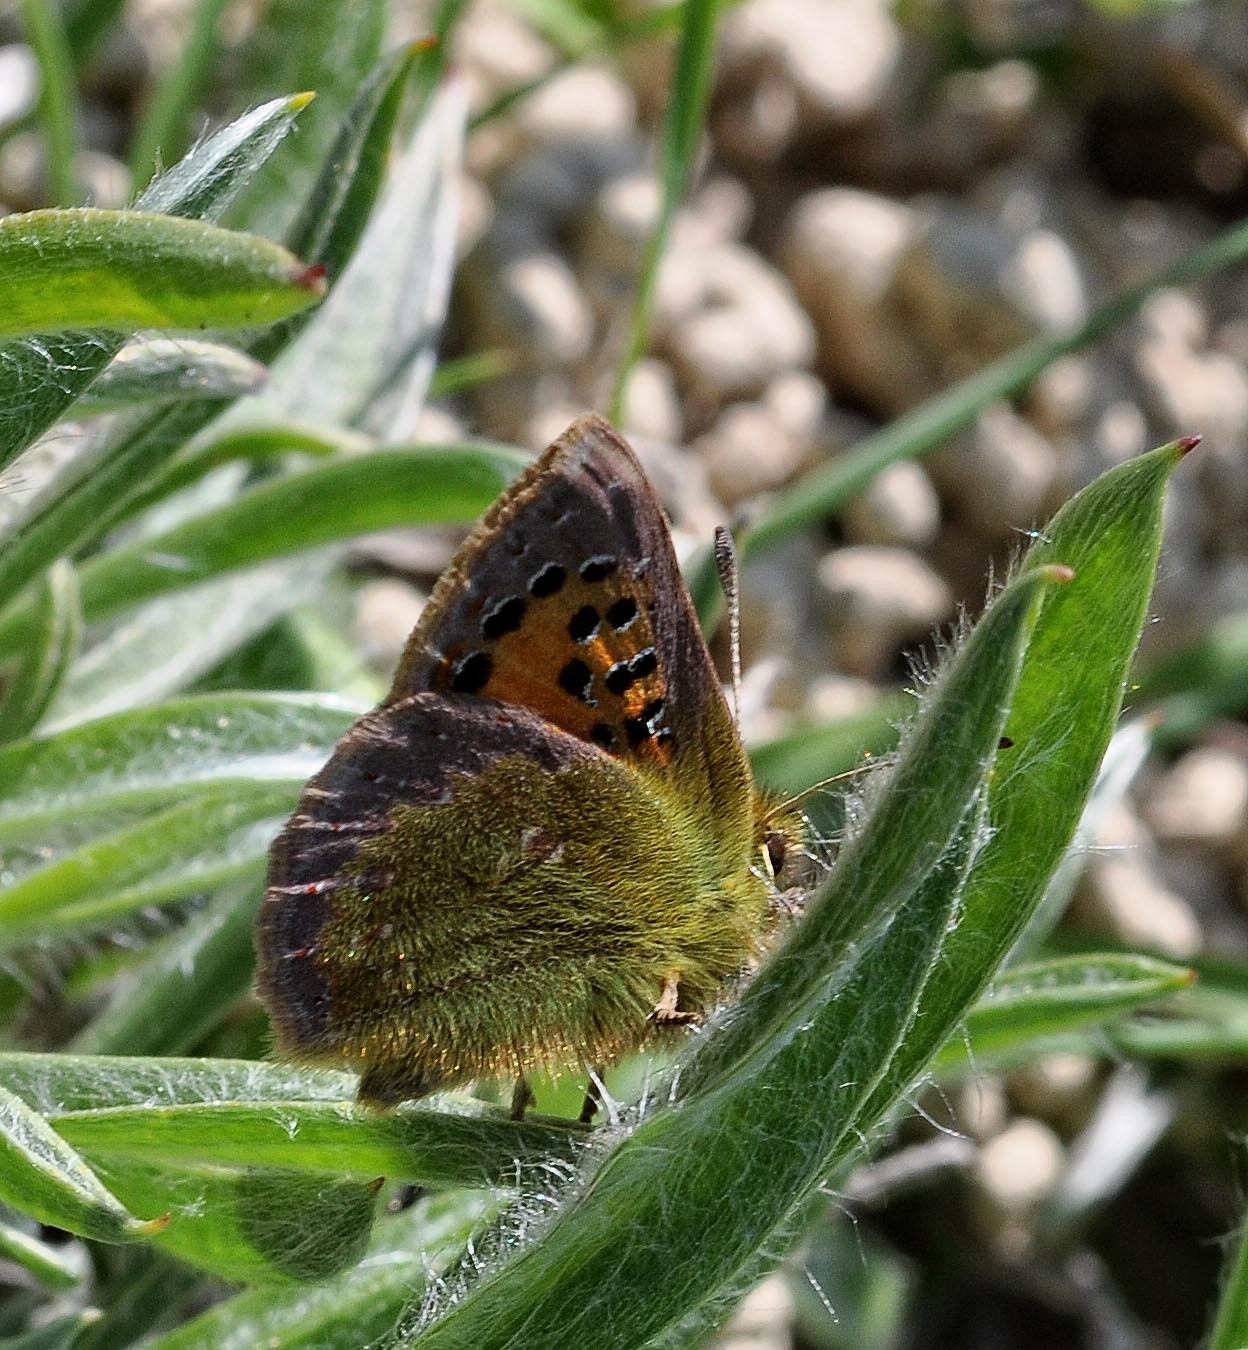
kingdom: Animalia
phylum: Arthropoda
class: Insecta
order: Lepidoptera
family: Lycaenidae
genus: Tomares
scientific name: Tomares ballus
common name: Provence hairstreak
